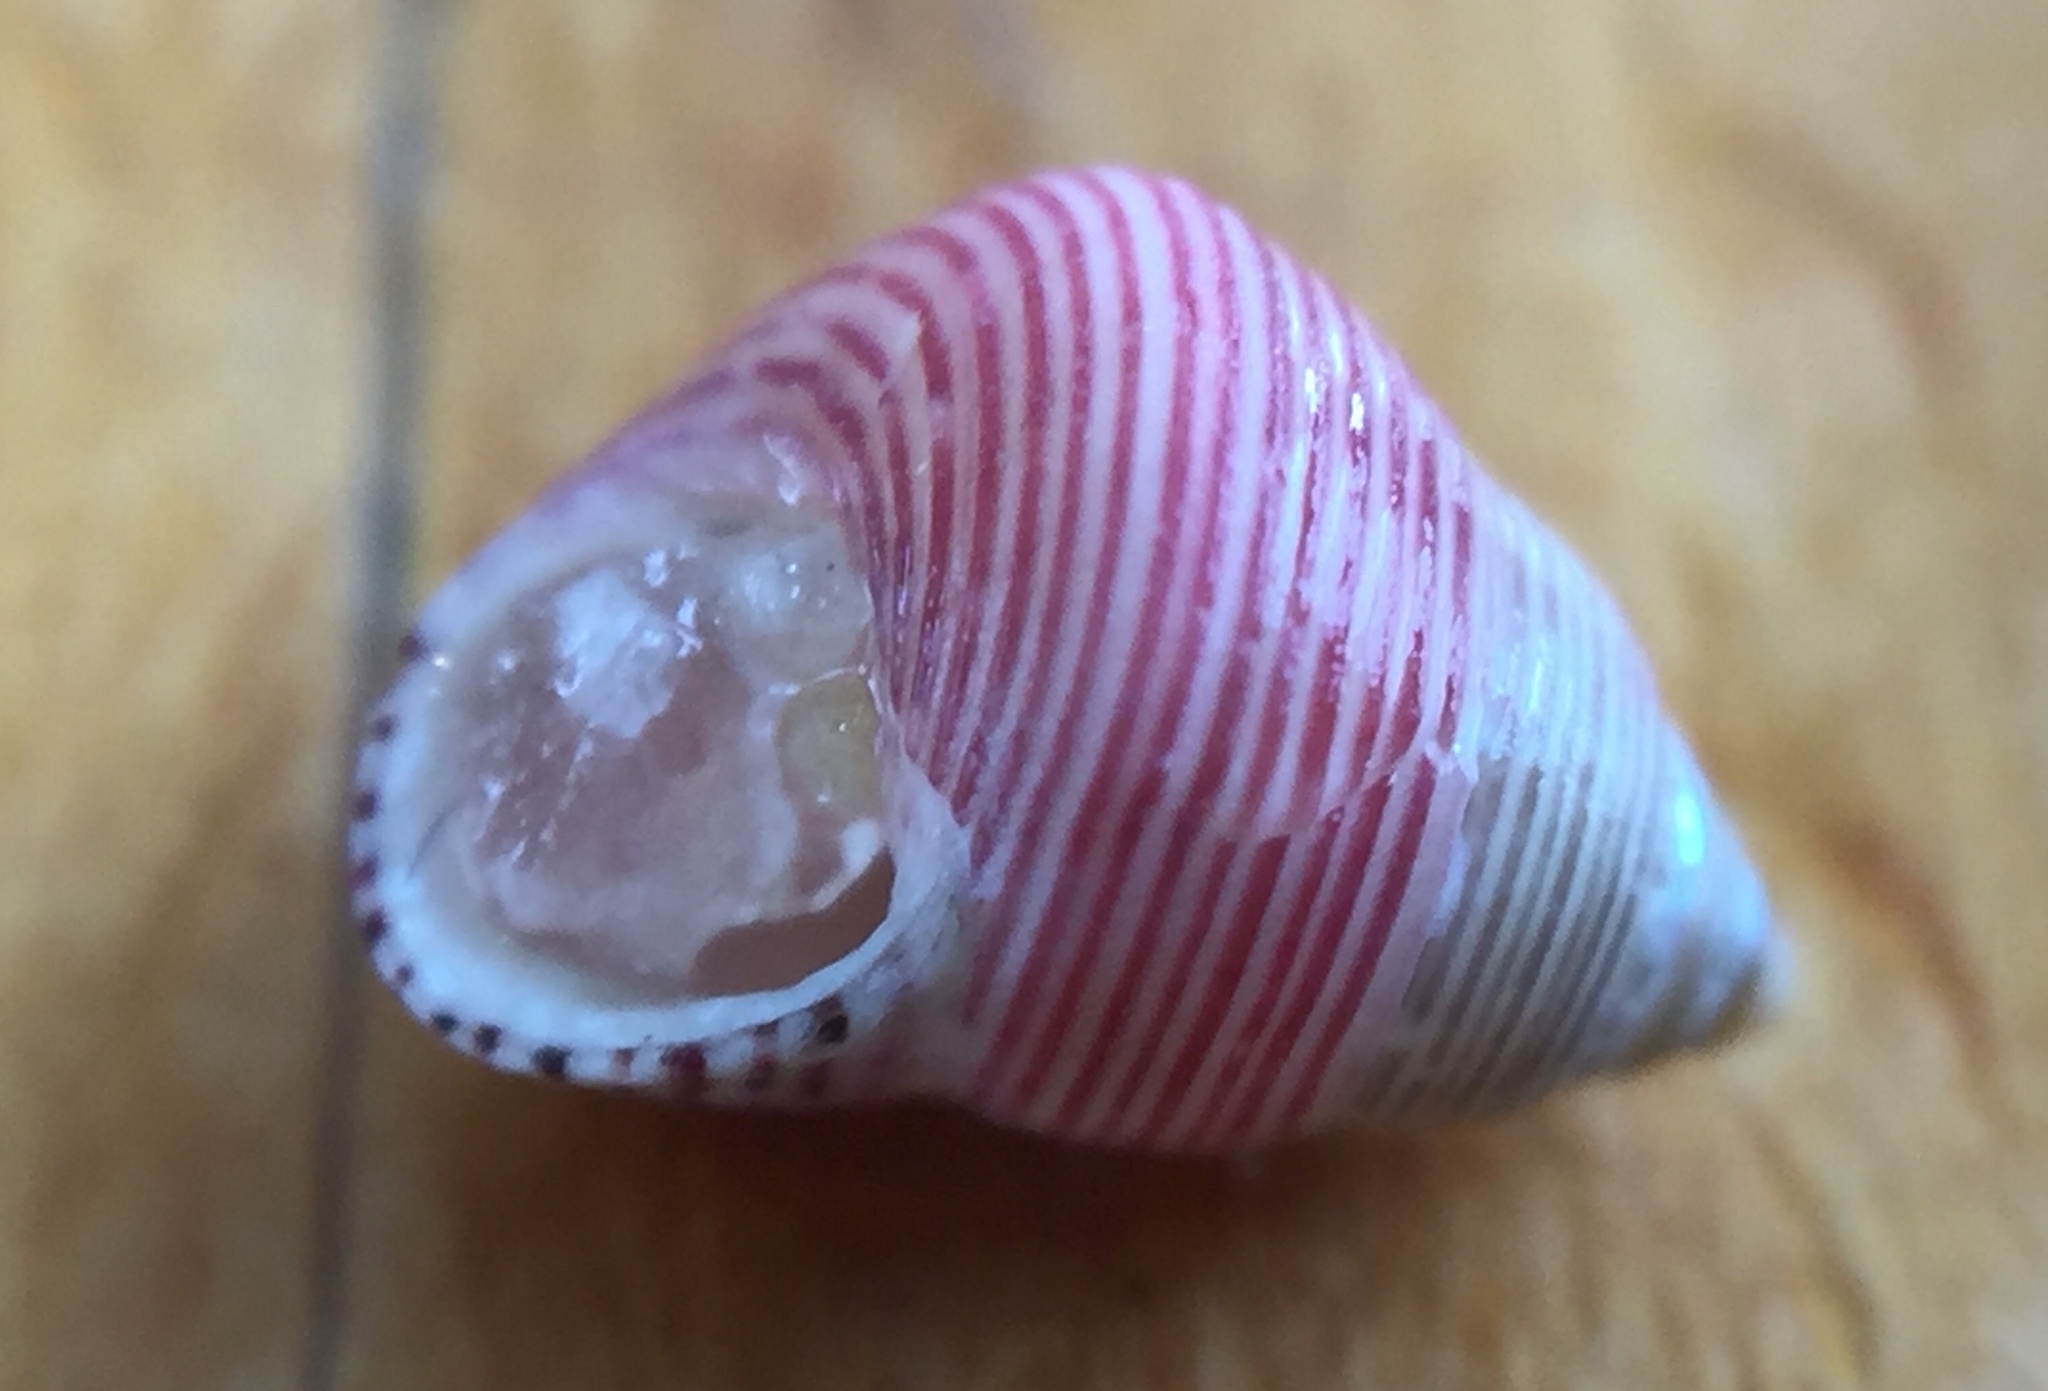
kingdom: Animalia
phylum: Mollusca
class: Gastropoda
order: Trochida
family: Trochidae
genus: Roseaplagis
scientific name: Roseaplagis artizona
